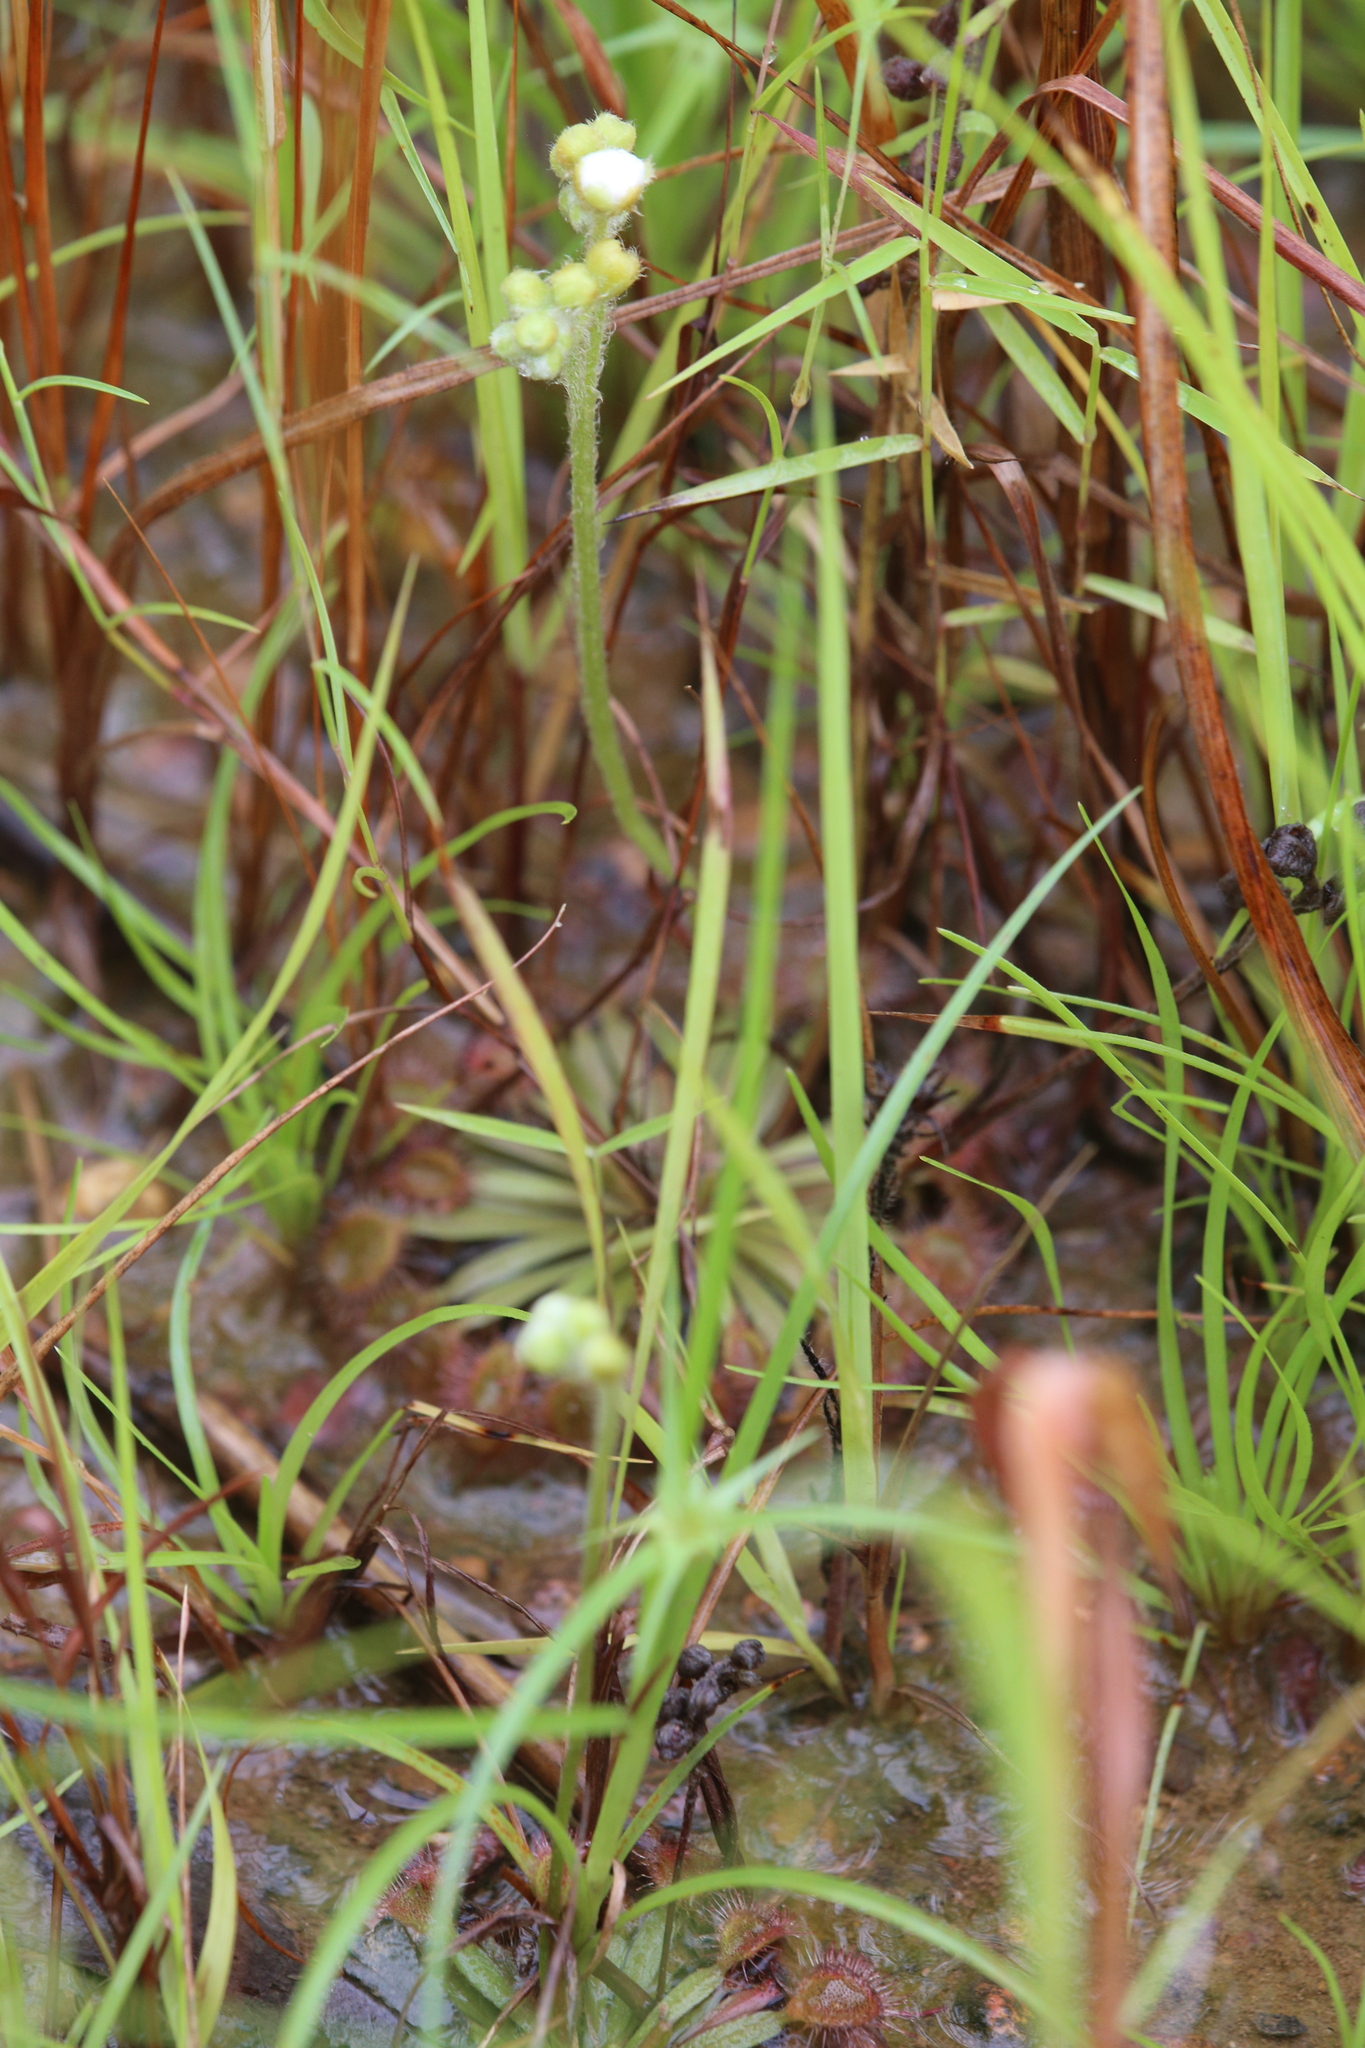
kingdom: Plantae
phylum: Tracheophyta
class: Magnoliopsida
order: Caryophyllales
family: Droseraceae
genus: Drosera
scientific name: Drosera darwinensis
